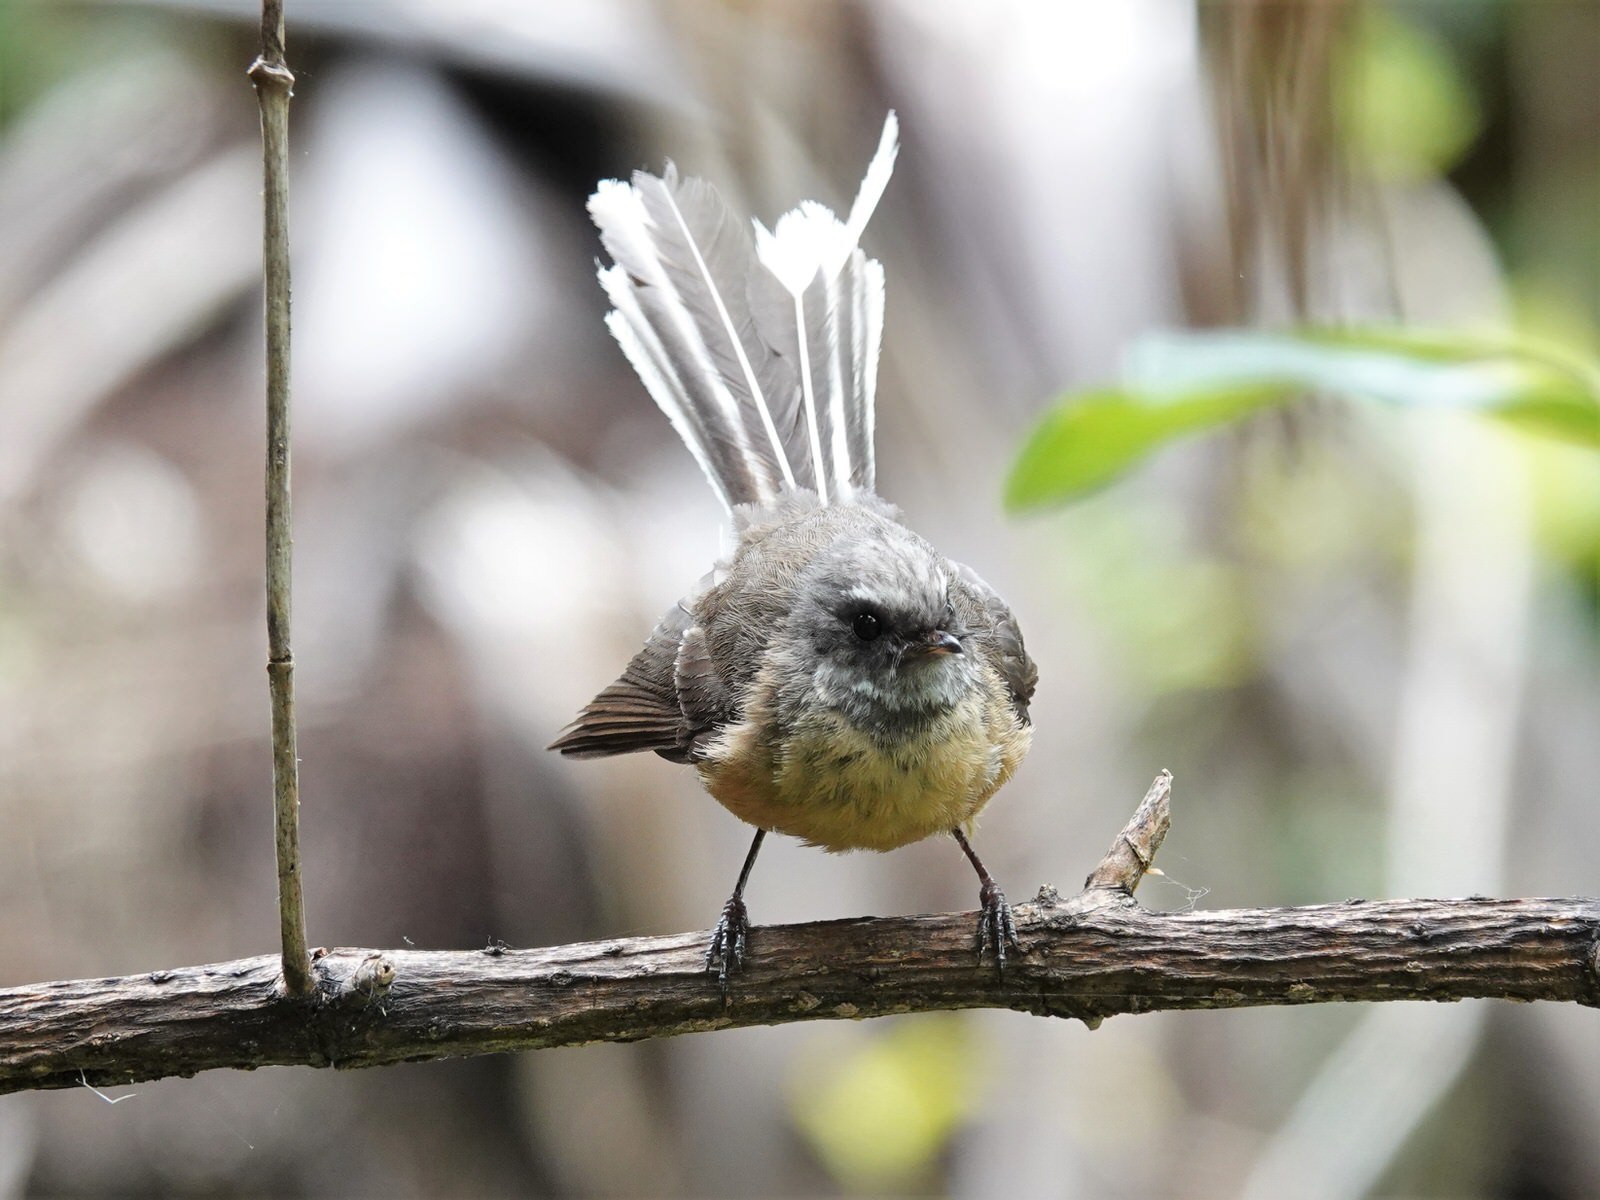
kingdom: Animalia
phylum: Chordata
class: Aves
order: Passeriformes
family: Rhipiduridae
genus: Rhipidura
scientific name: Rhipidura fuliginosa
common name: New zealand fantail
